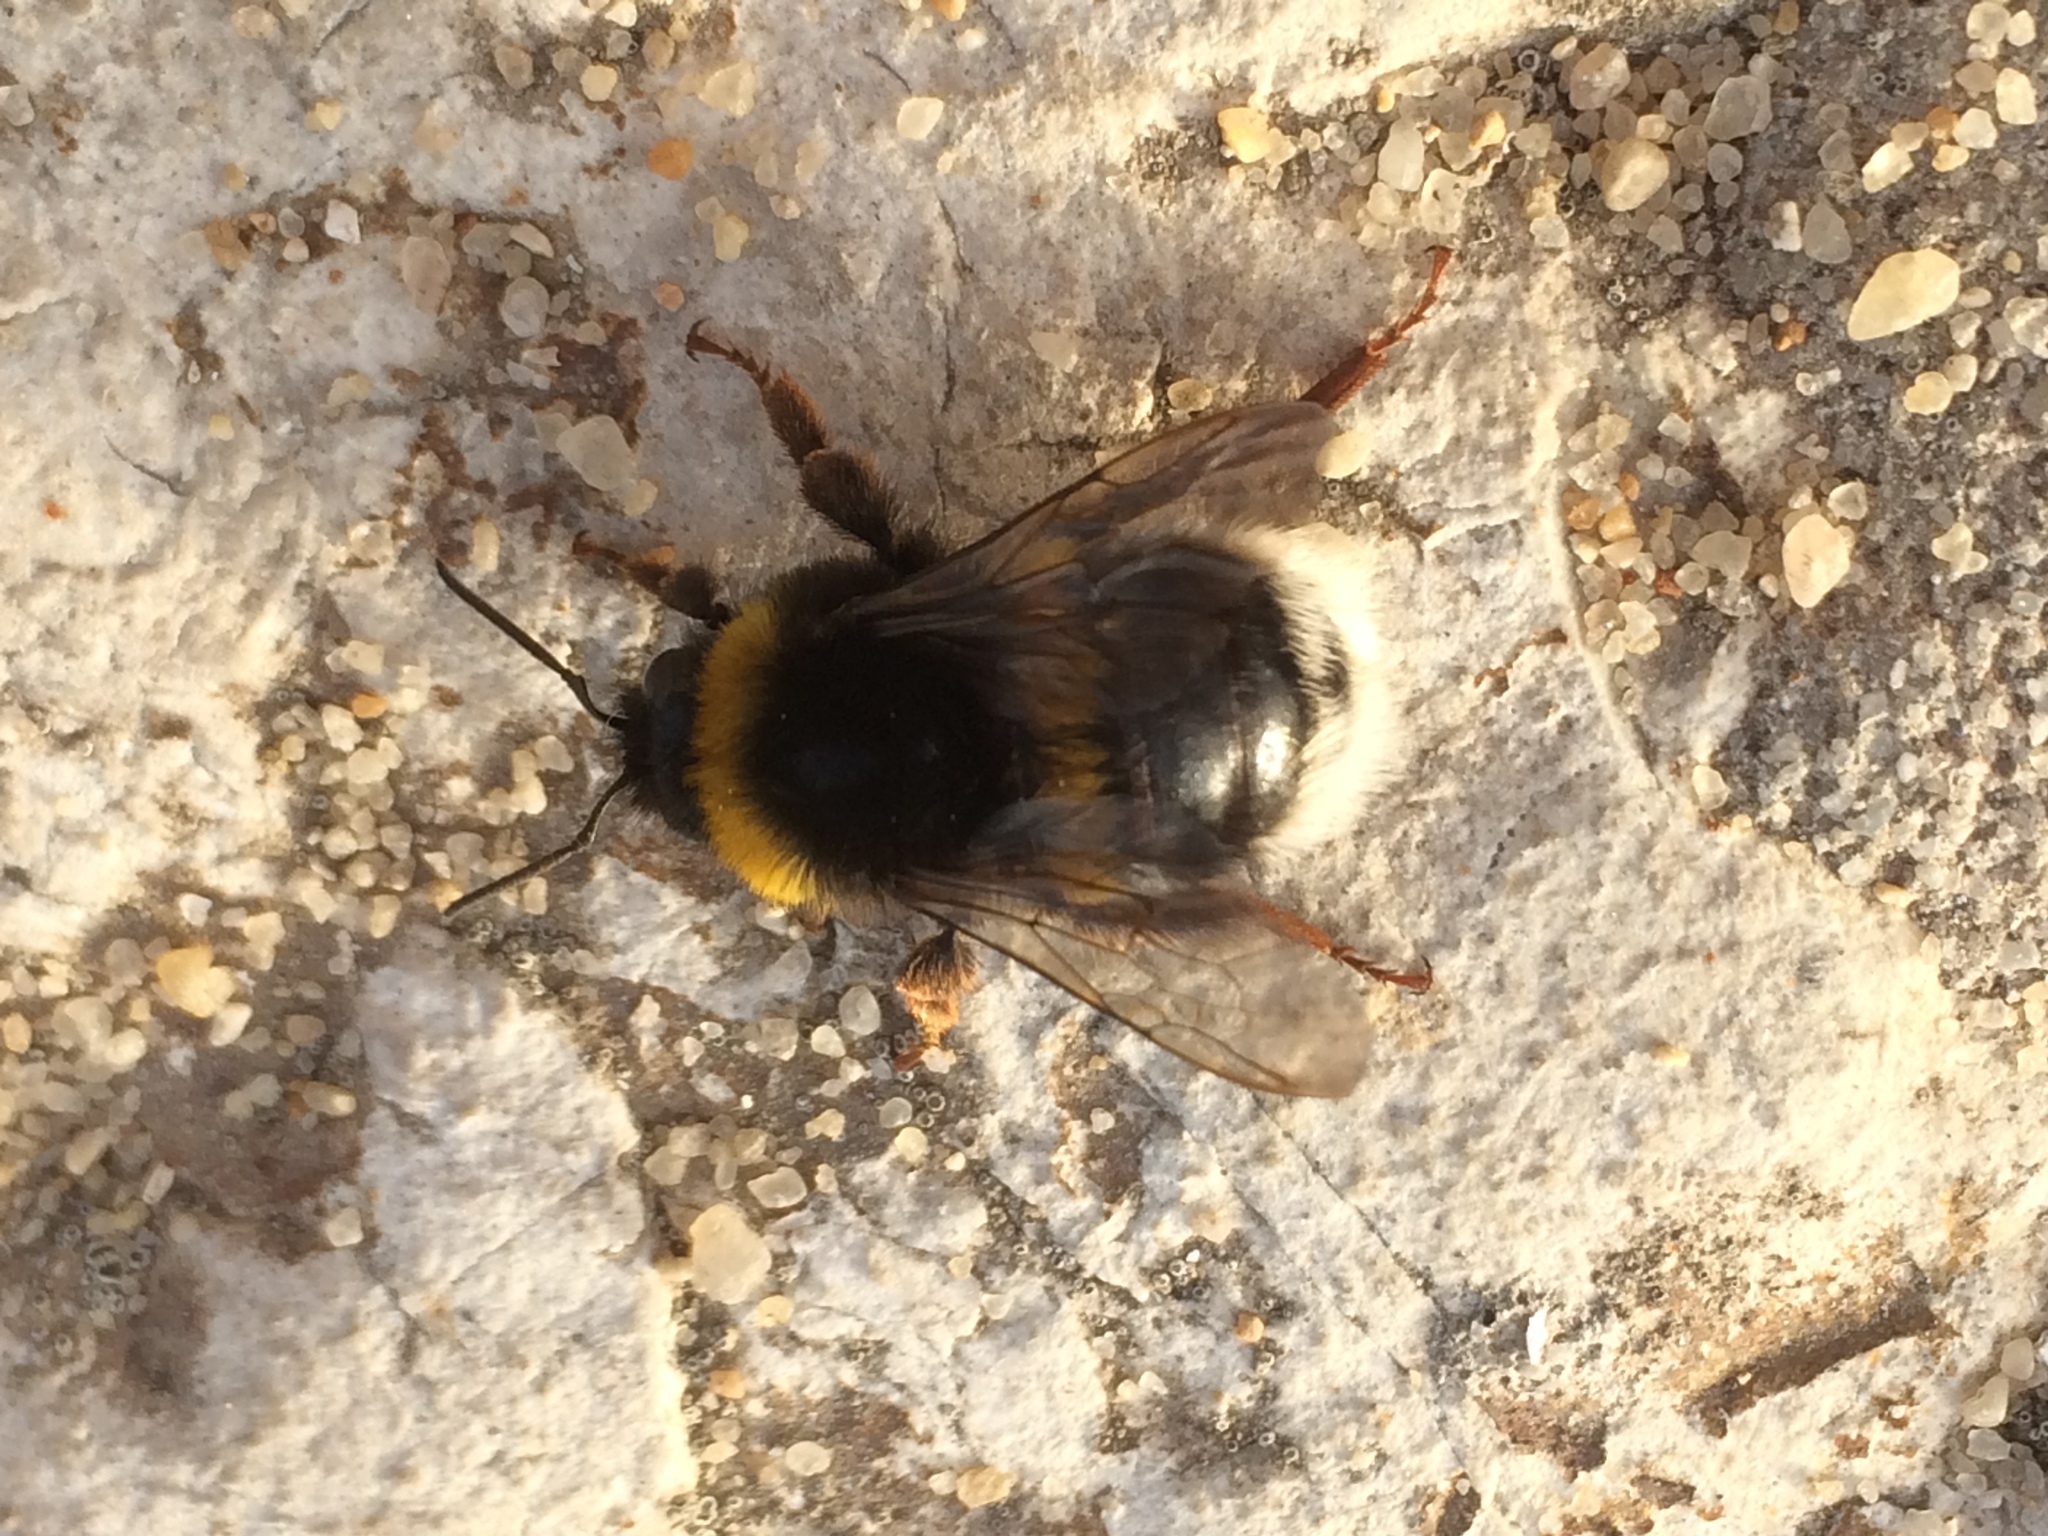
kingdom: Animalia
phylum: Arthropoda
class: Insecta
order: Hymenoptera
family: Apidae
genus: Bombus
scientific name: Bombus terrestris
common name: Buff-tailed bumblebee
